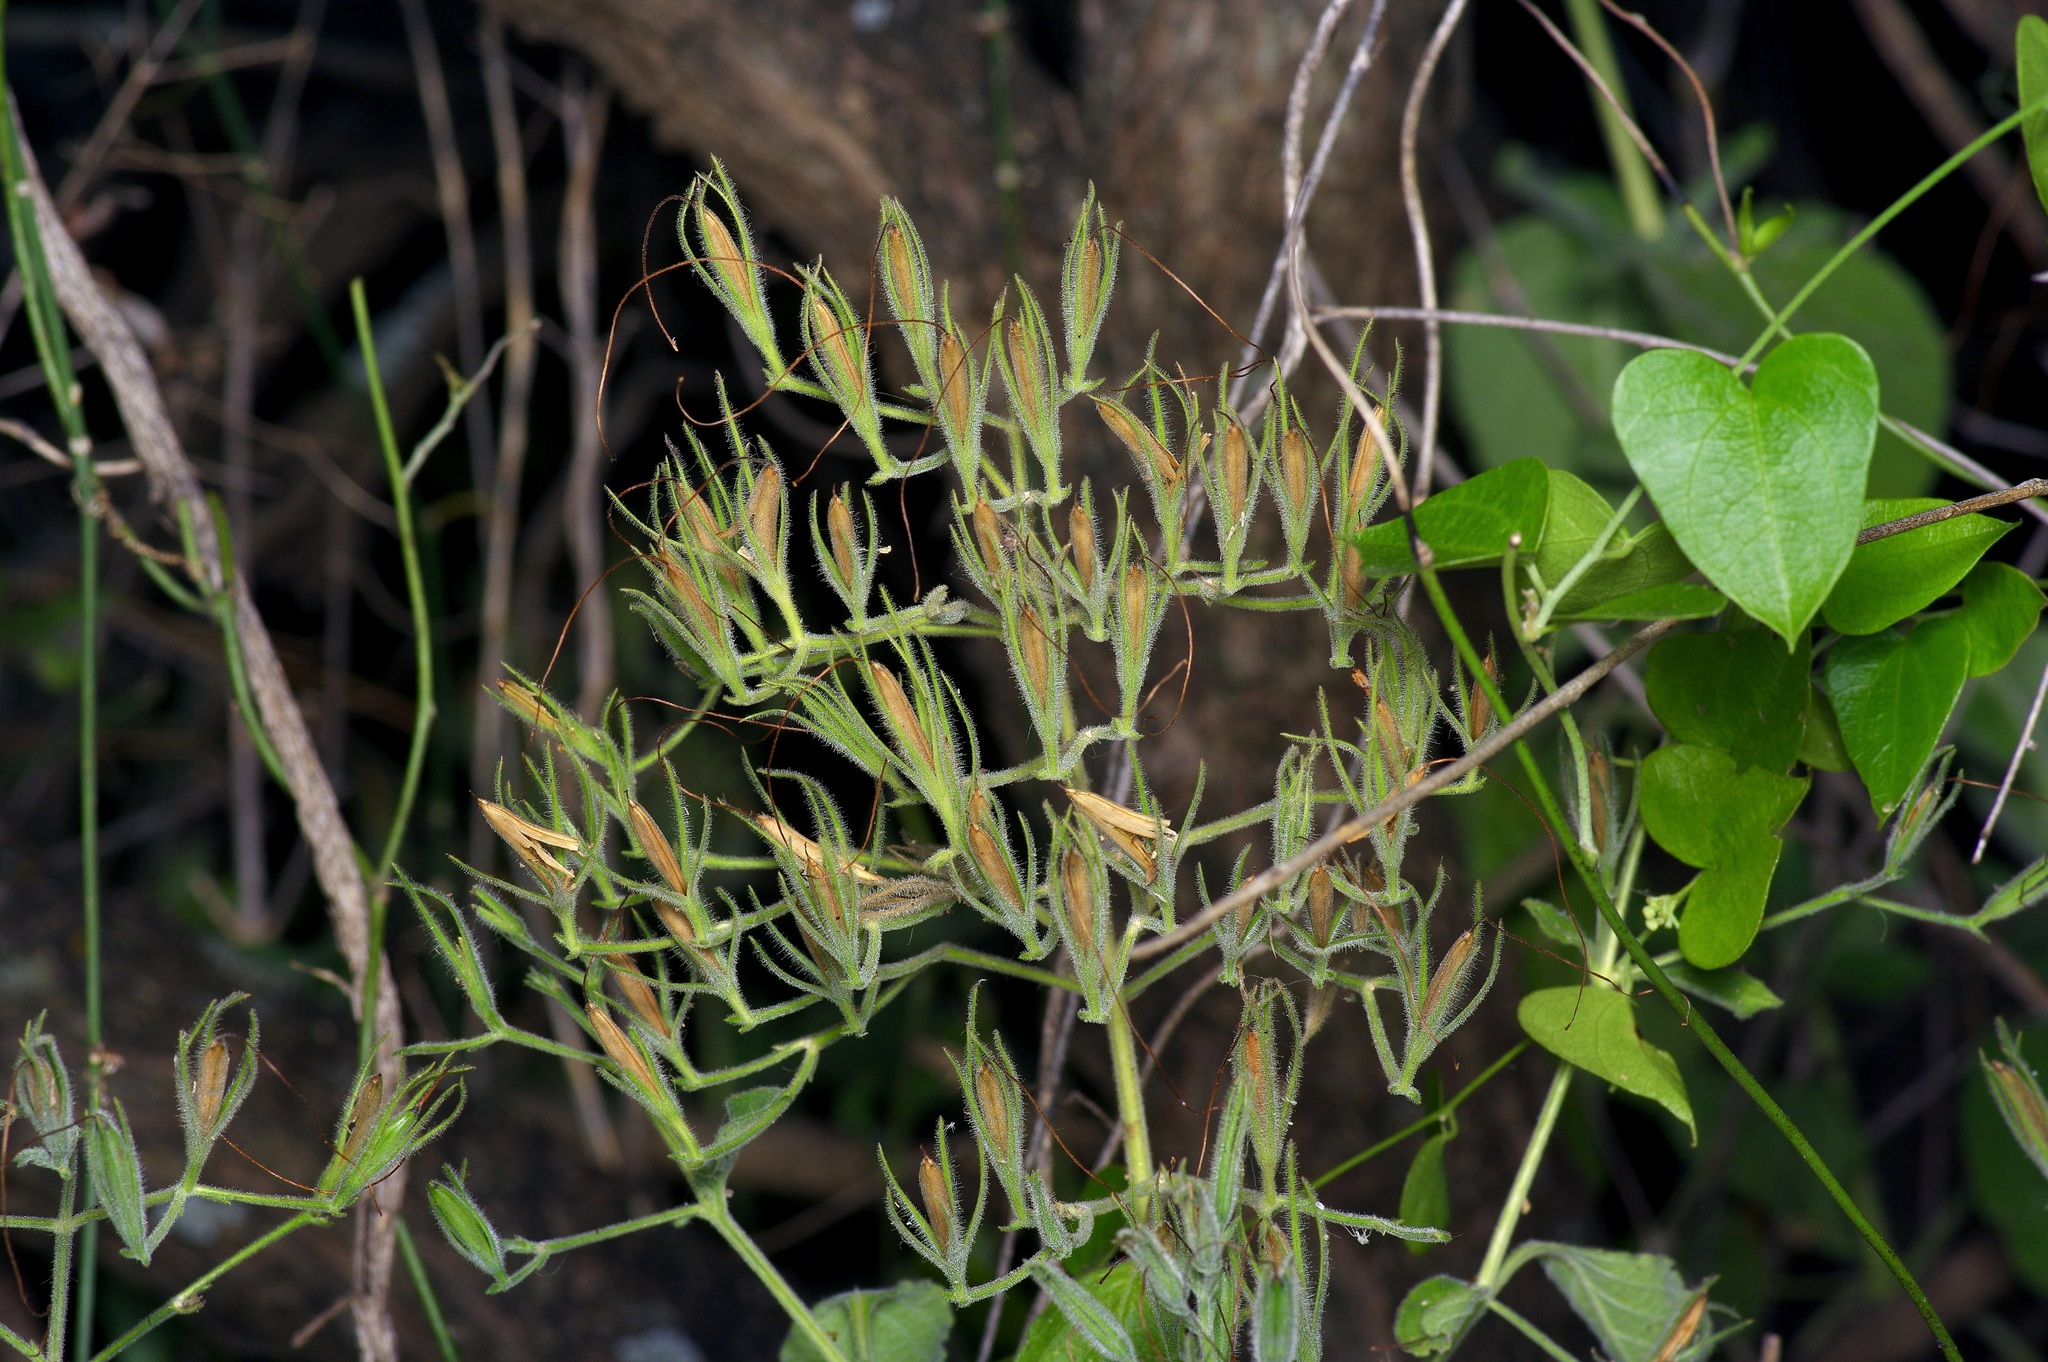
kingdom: Plantae
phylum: Tracheophyta
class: Magnoliopsida
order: Lamiales
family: Acanthaceae
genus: Ruellia
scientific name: Ruellia ciliatiflora
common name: Hairyflower wild petunia
